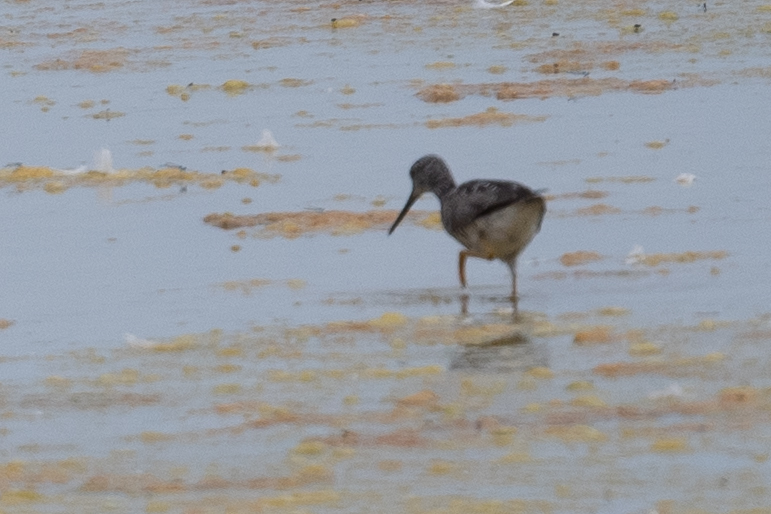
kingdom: Animalia
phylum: Chordata
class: Aves
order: Charadriiformes
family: Scolopacidae
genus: Tringa
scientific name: Tringa melanoleuca
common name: Greater yellowlegs
